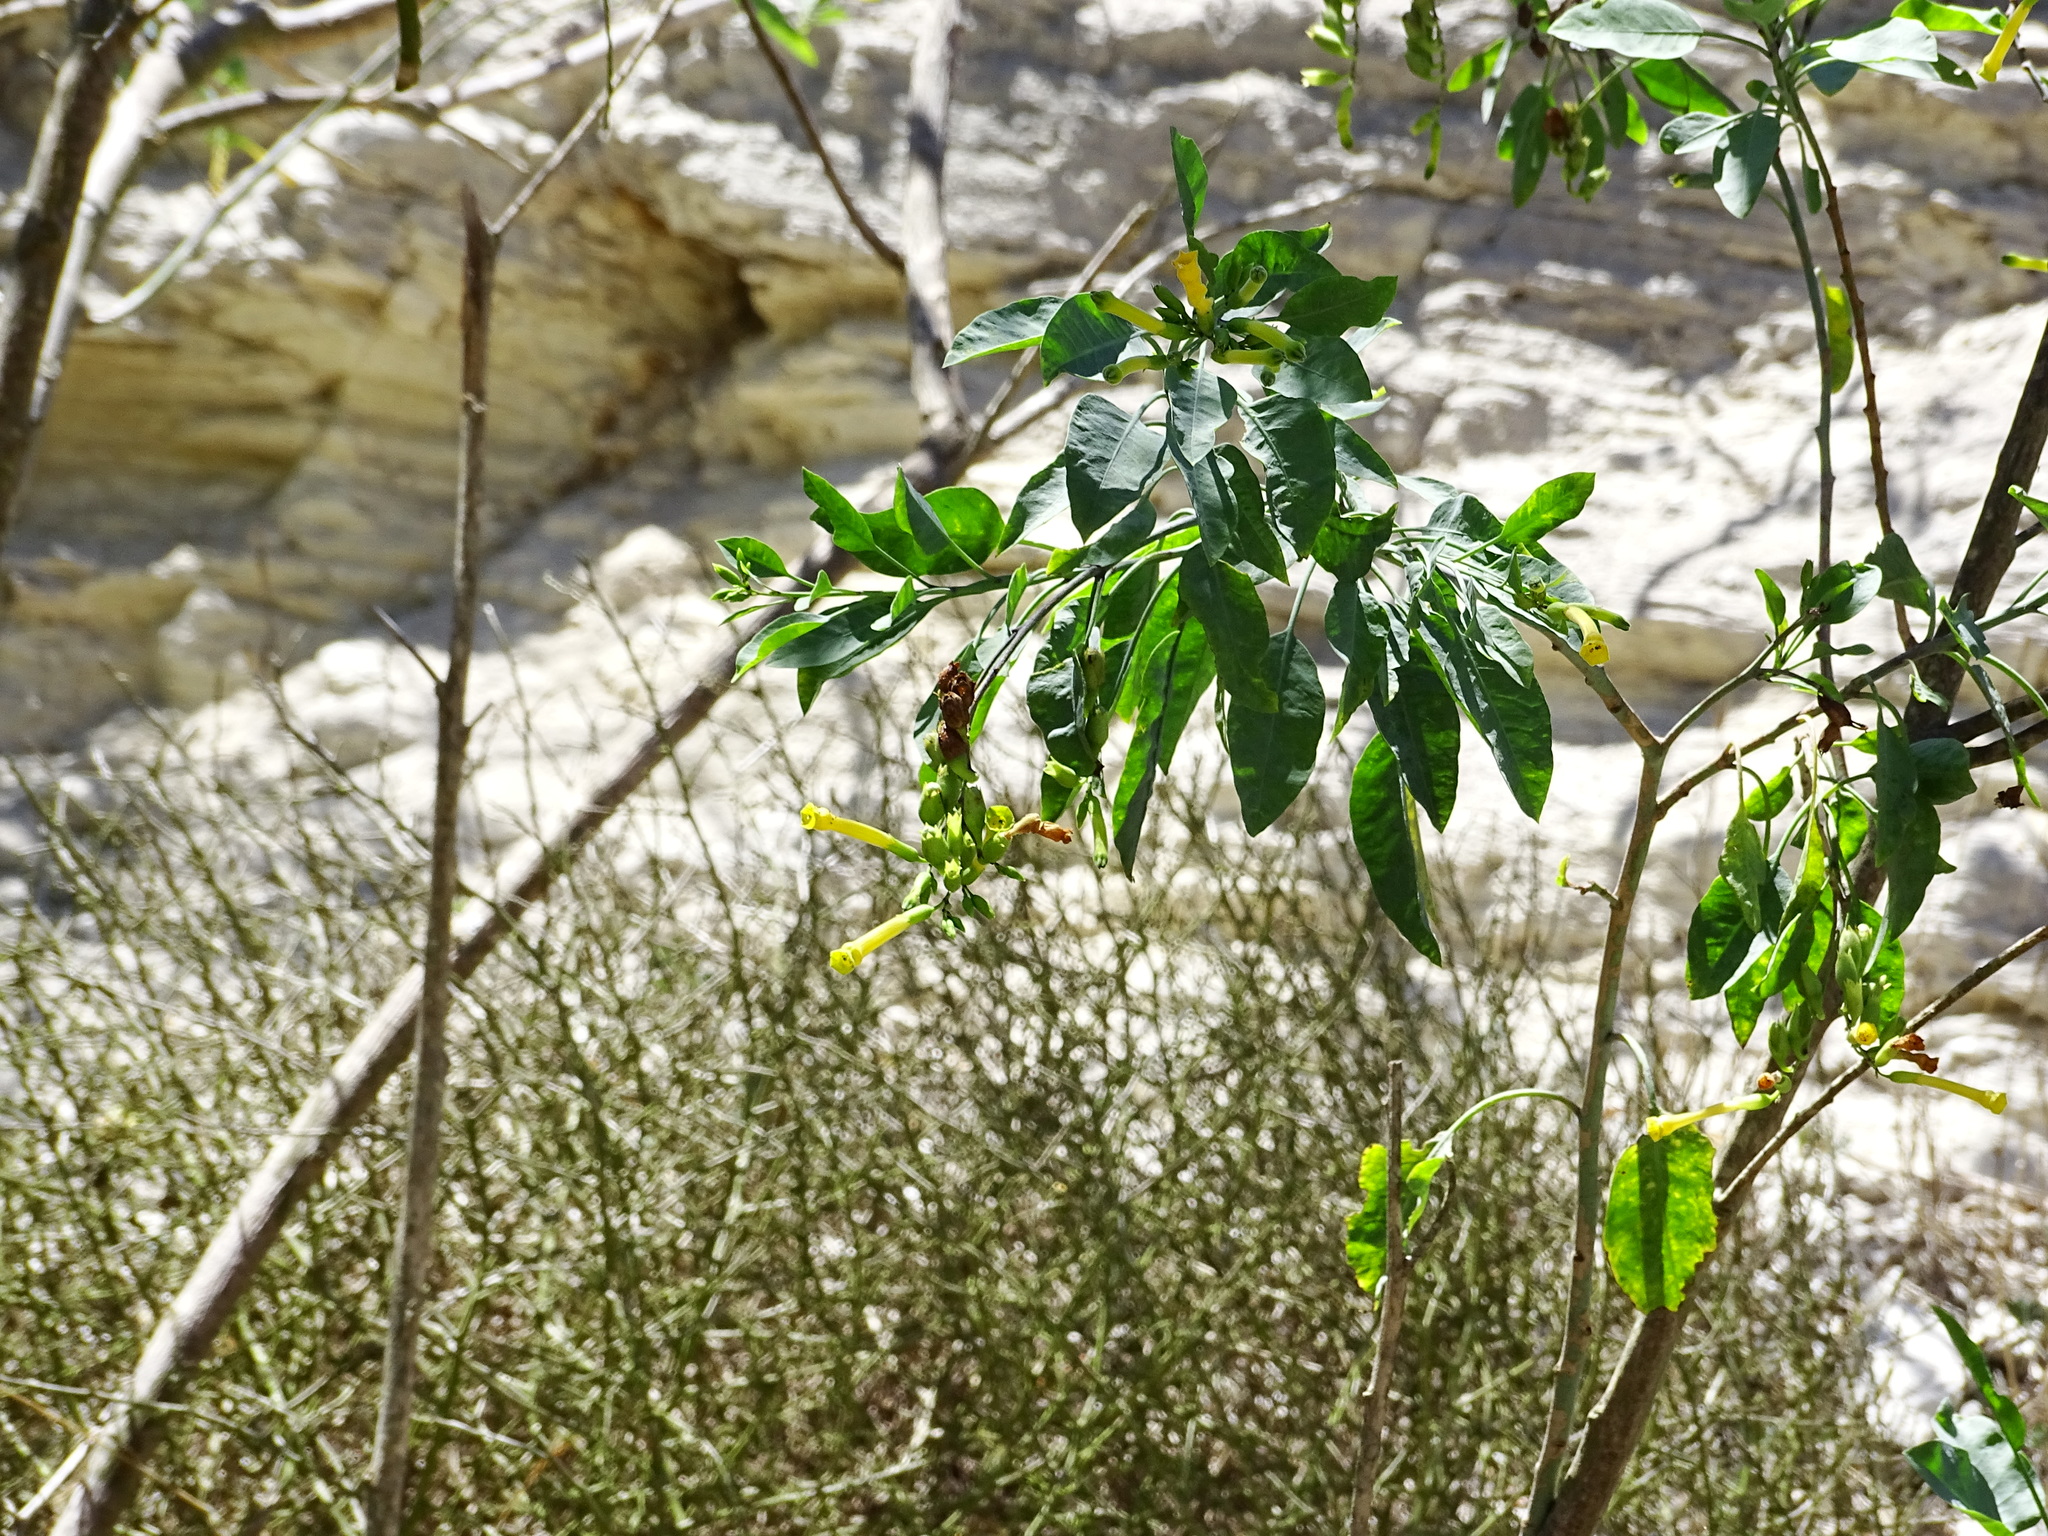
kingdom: Plantae
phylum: Tracheophyta
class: Magnoliopsida
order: Solanales
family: Solanaceae
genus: Nicotiana
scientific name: Nicotiana glauca
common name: Tree tobacco
